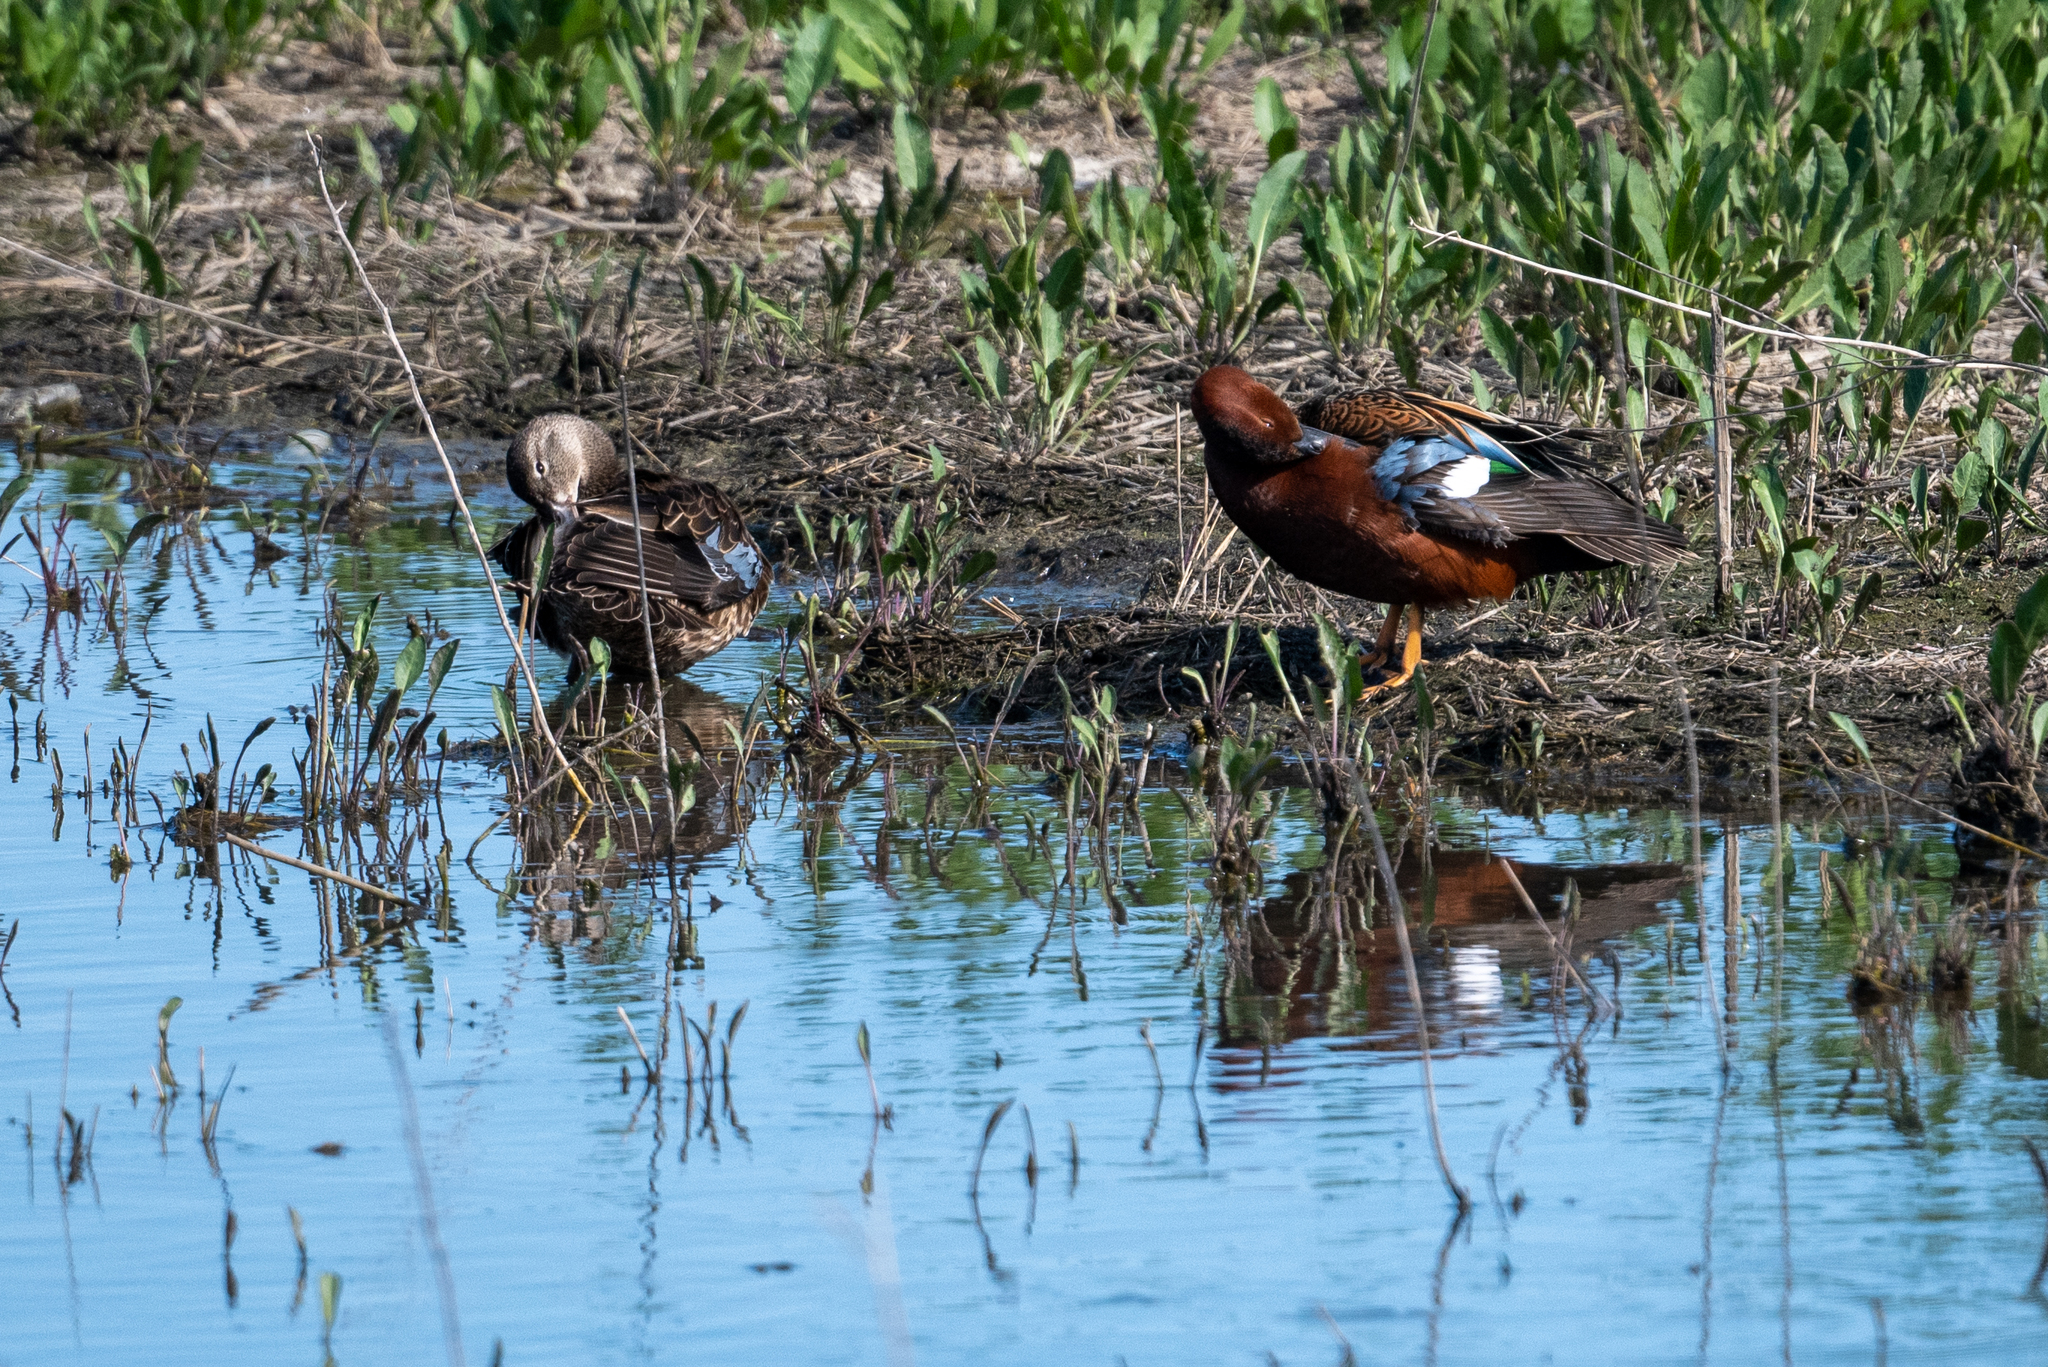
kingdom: Animalia
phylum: Chordata
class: Aves
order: Anseriformes
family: Anatidae
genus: Spatula
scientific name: Spatula cyanoptera
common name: Cinnamon teal
